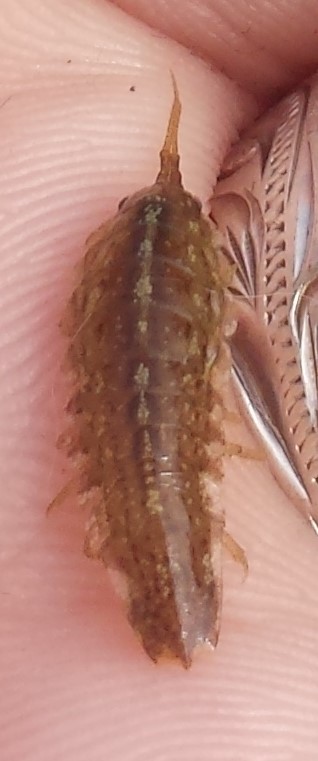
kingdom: Animalia
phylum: Arthropoda
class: Malacostraca
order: Isopoda
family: Idoteidae
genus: Idotea
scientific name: Idotea balthica
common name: Baltic isopod
